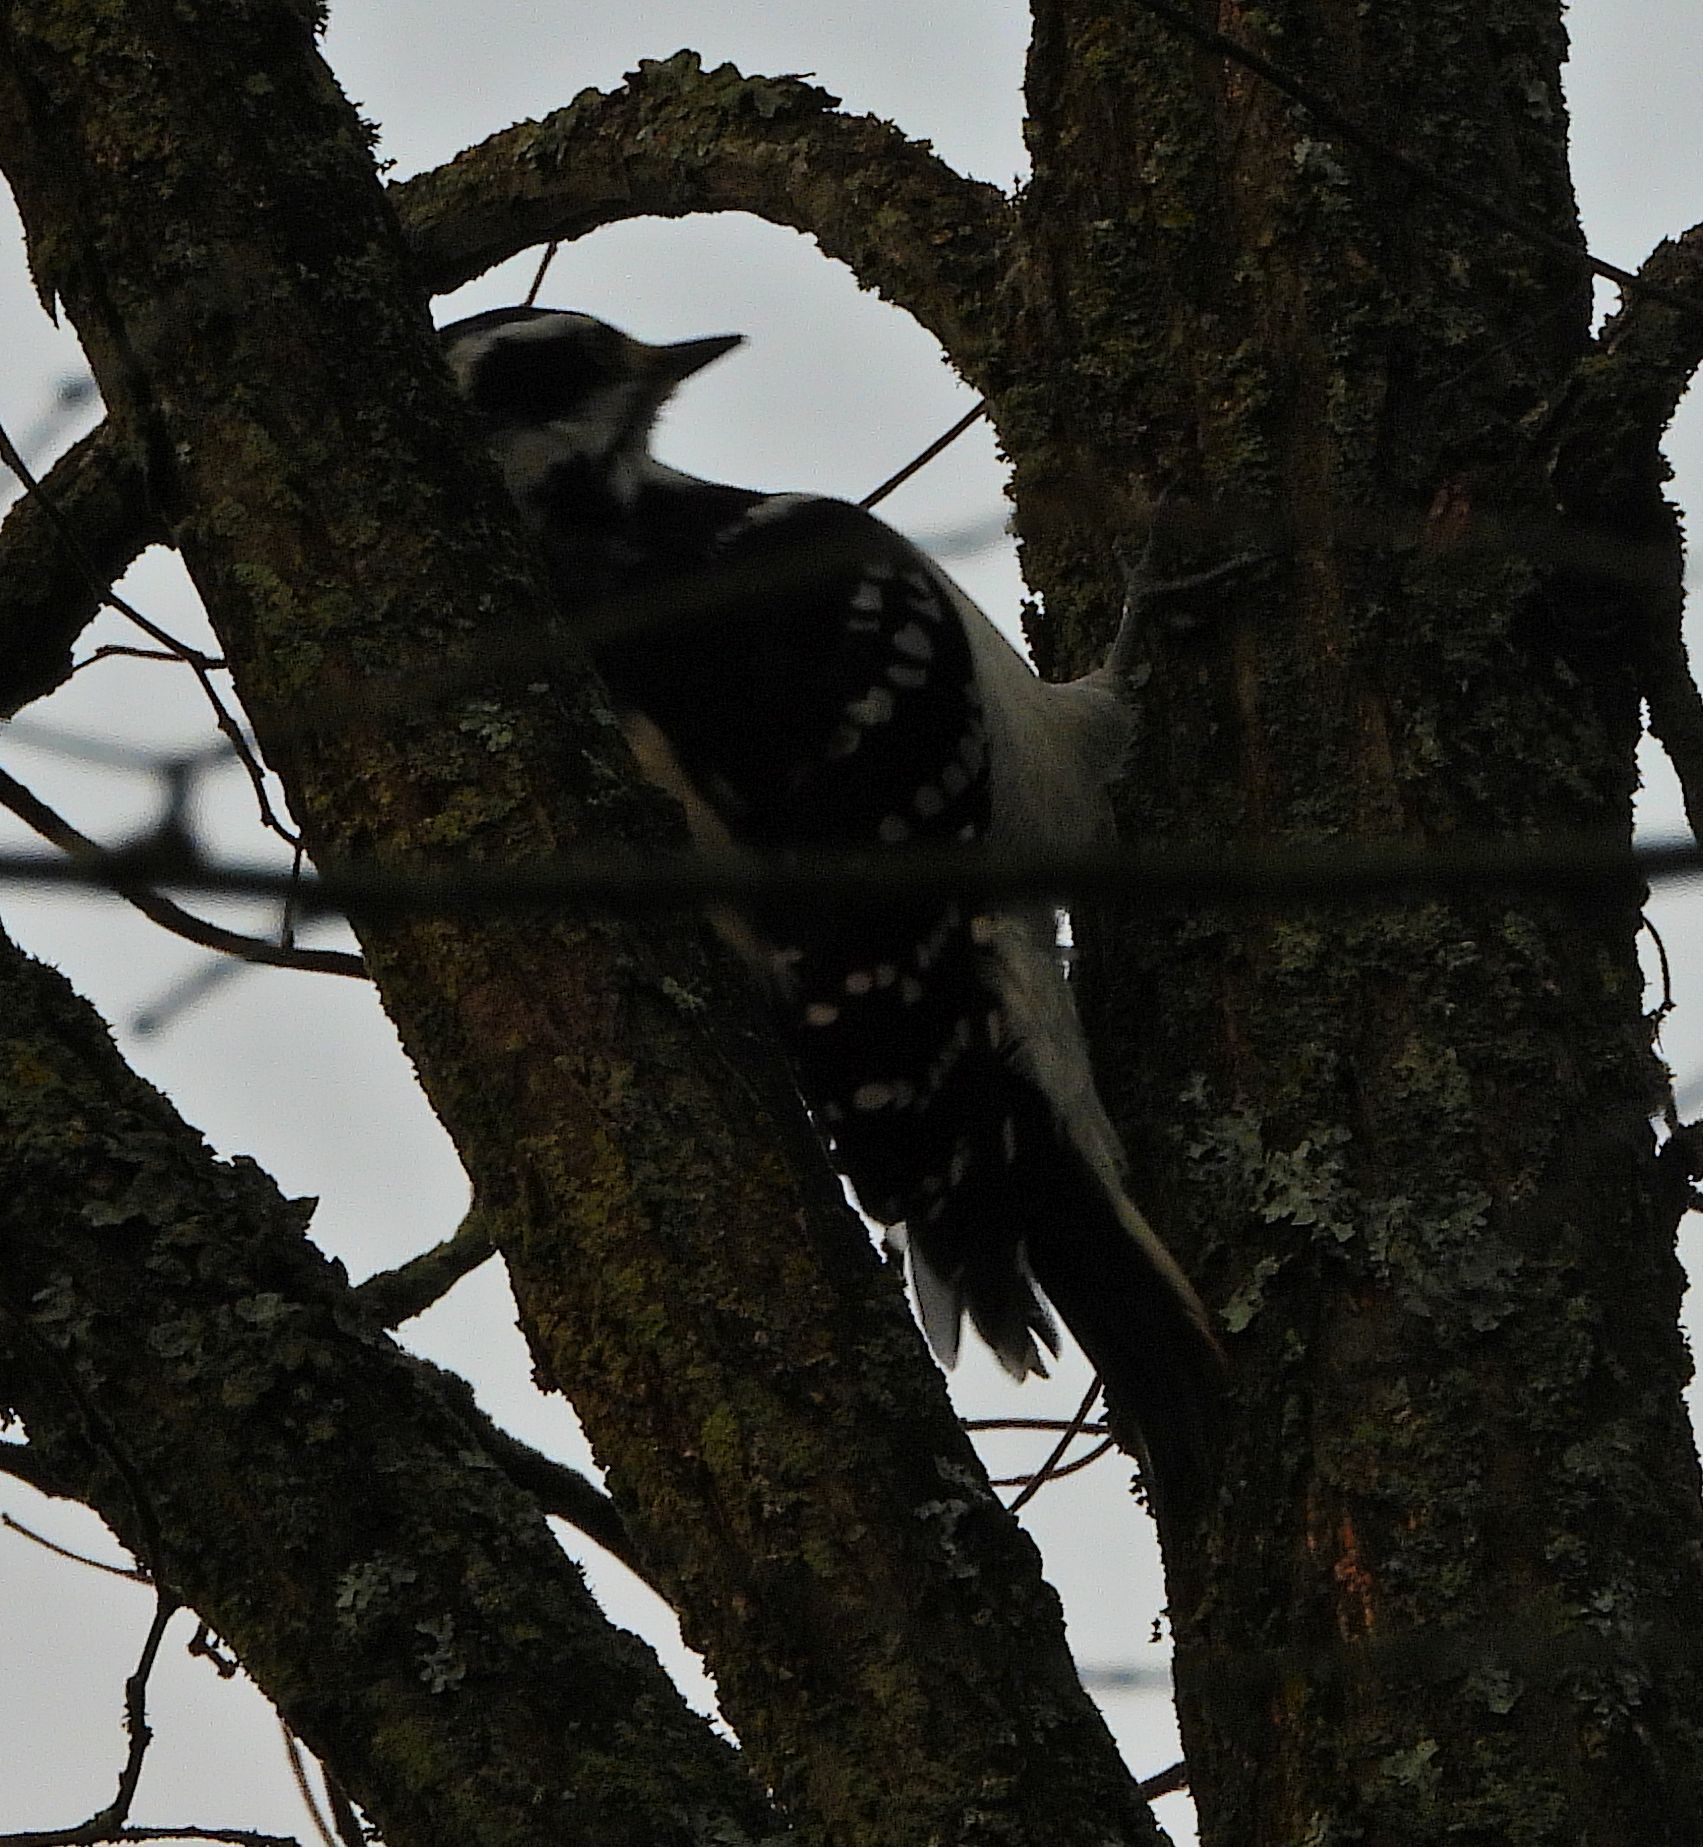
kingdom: Animalia
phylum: Chordata
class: Aves
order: Piciformes
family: Picidae
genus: Leuconotopicus
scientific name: Leuconotopicus villosus
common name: Hairy woodpecker
